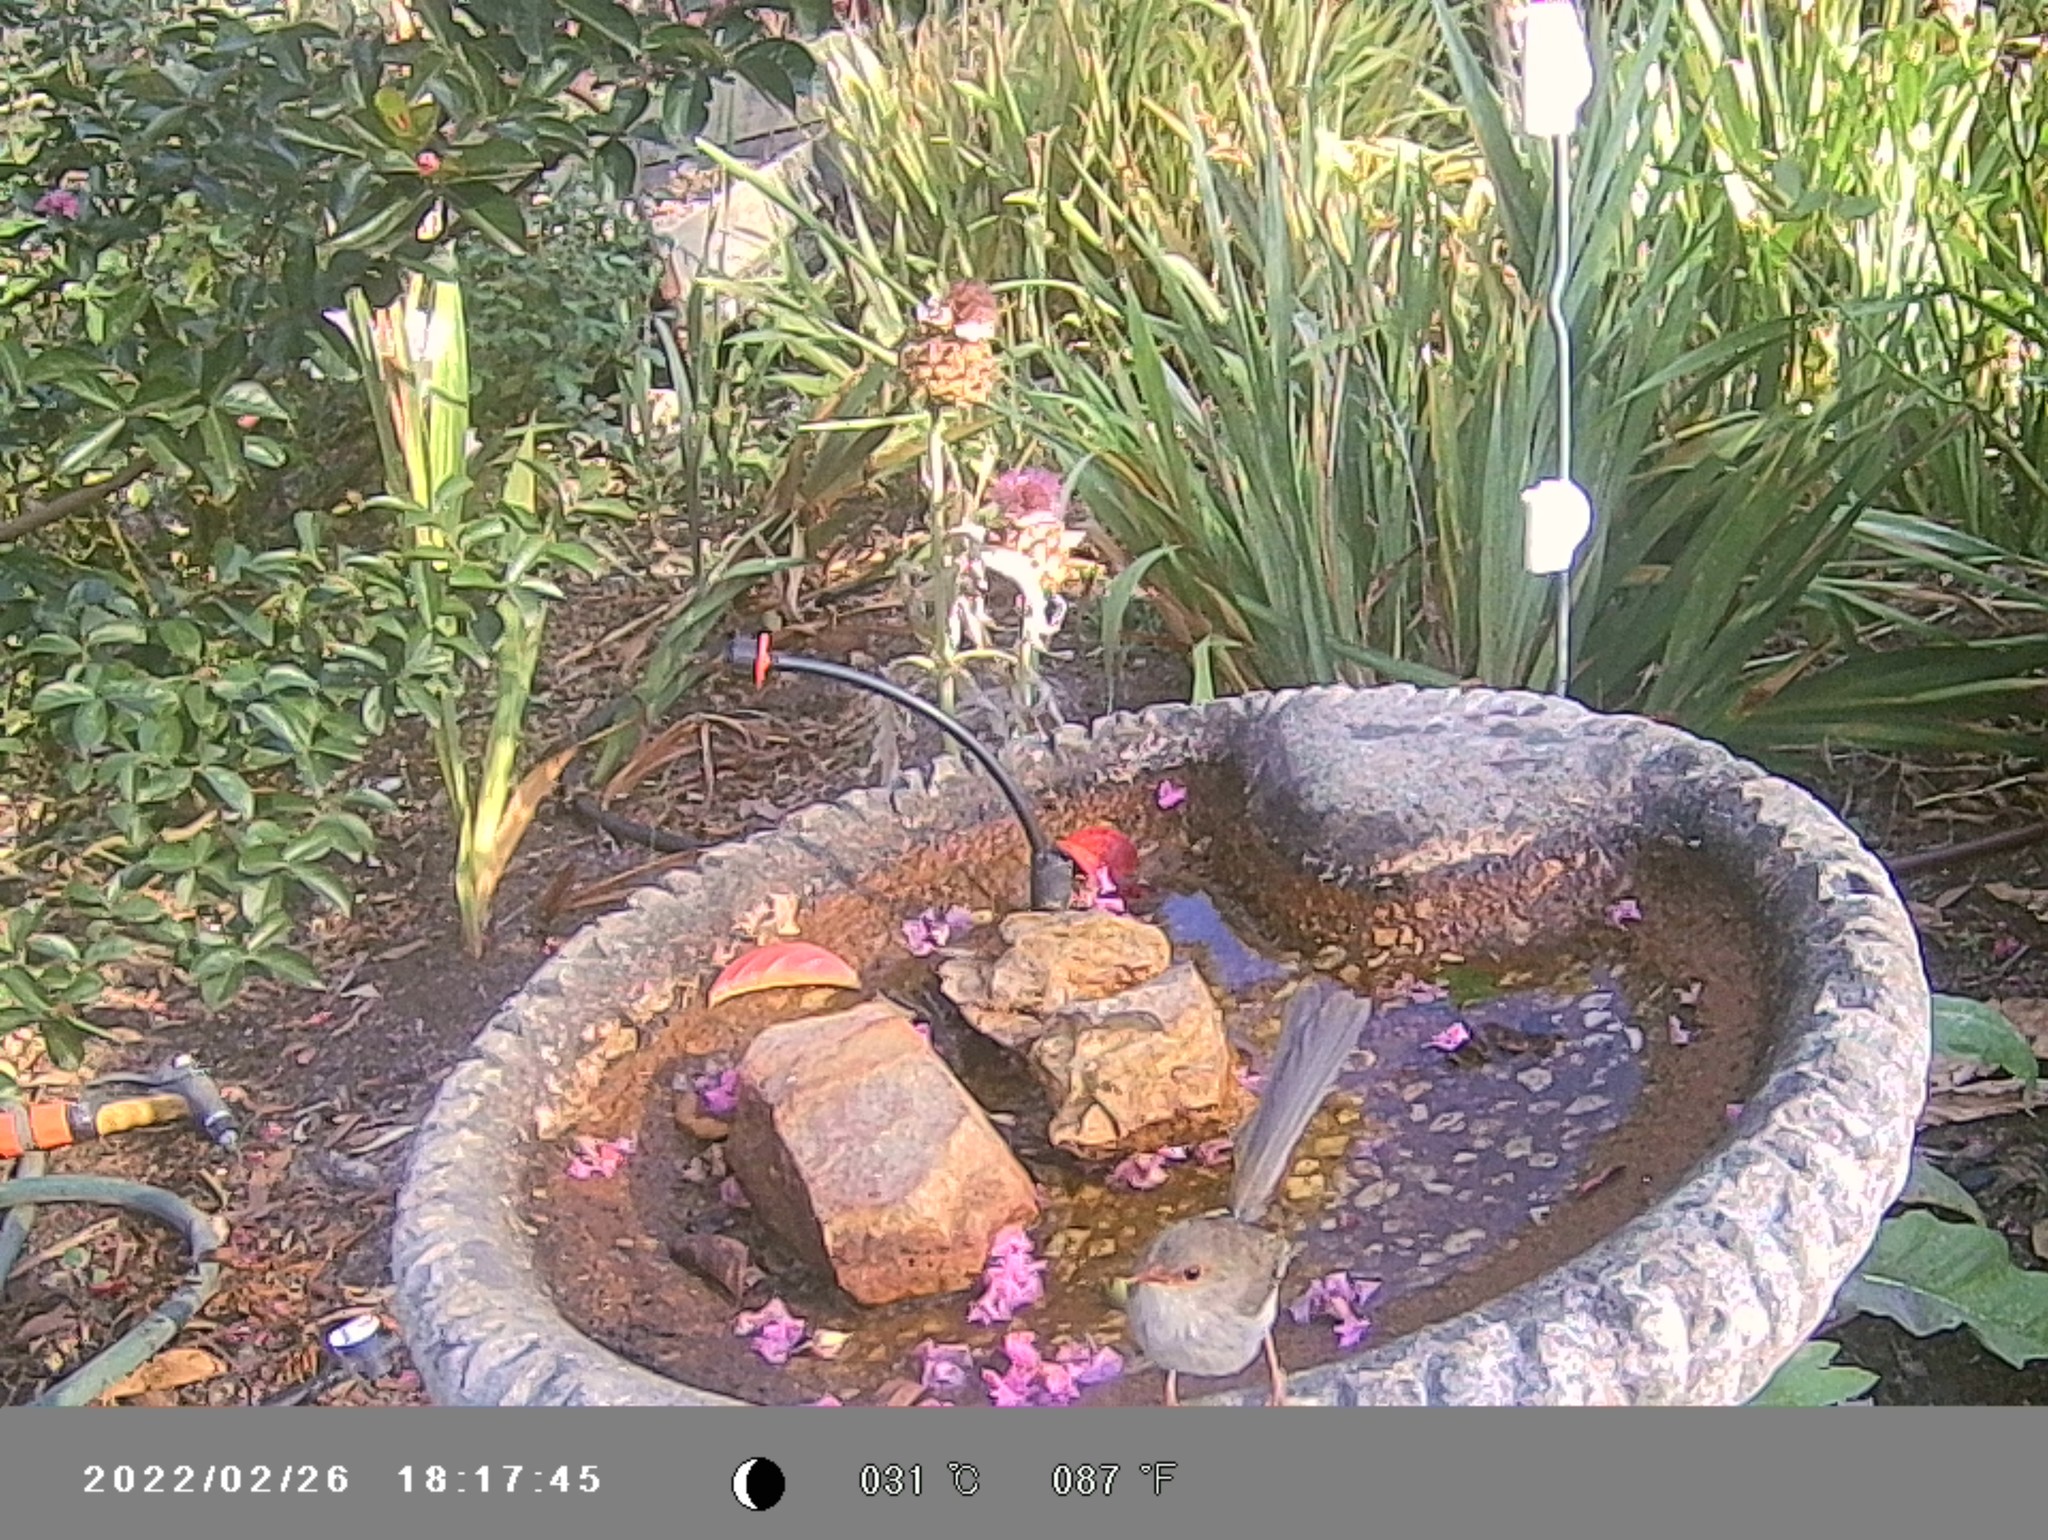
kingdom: Animalia
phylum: Chordata
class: Aves
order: Passeriformes
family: Maluridae
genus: Malurus
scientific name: Malurus cyaneus
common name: Superb fairywren
